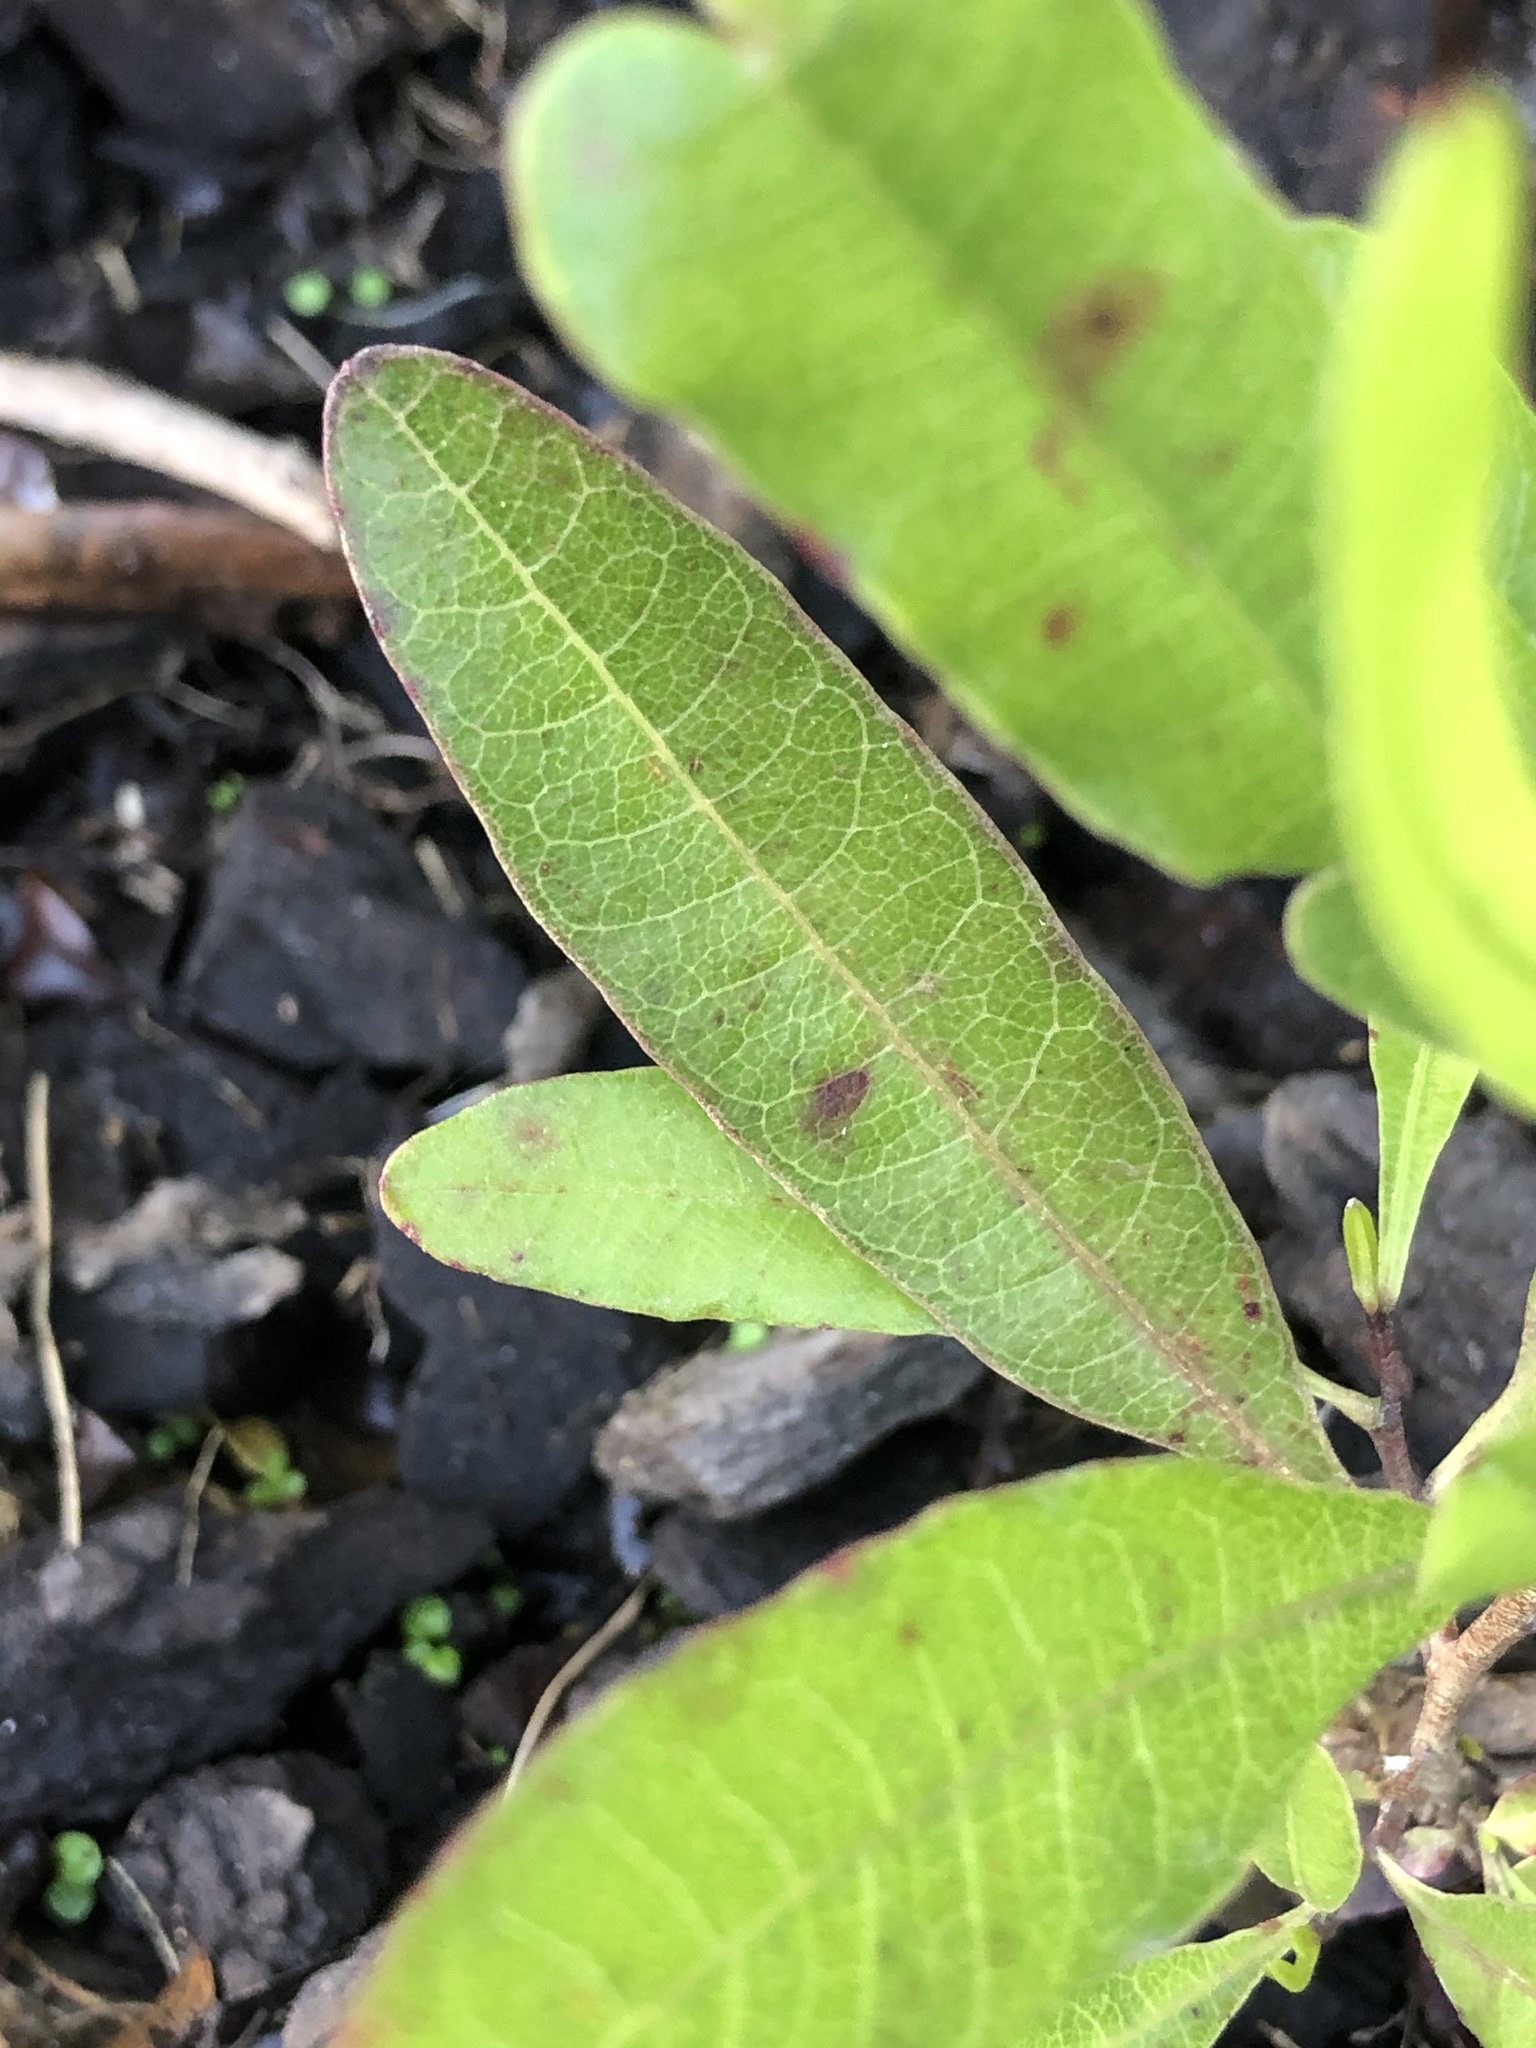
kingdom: Plantae
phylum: Tracheophyta
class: Magnoliopsida
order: Sapindales
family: Sapindaceae
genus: Dodonaea
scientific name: Dodonaea viscosa
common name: Hopbush
